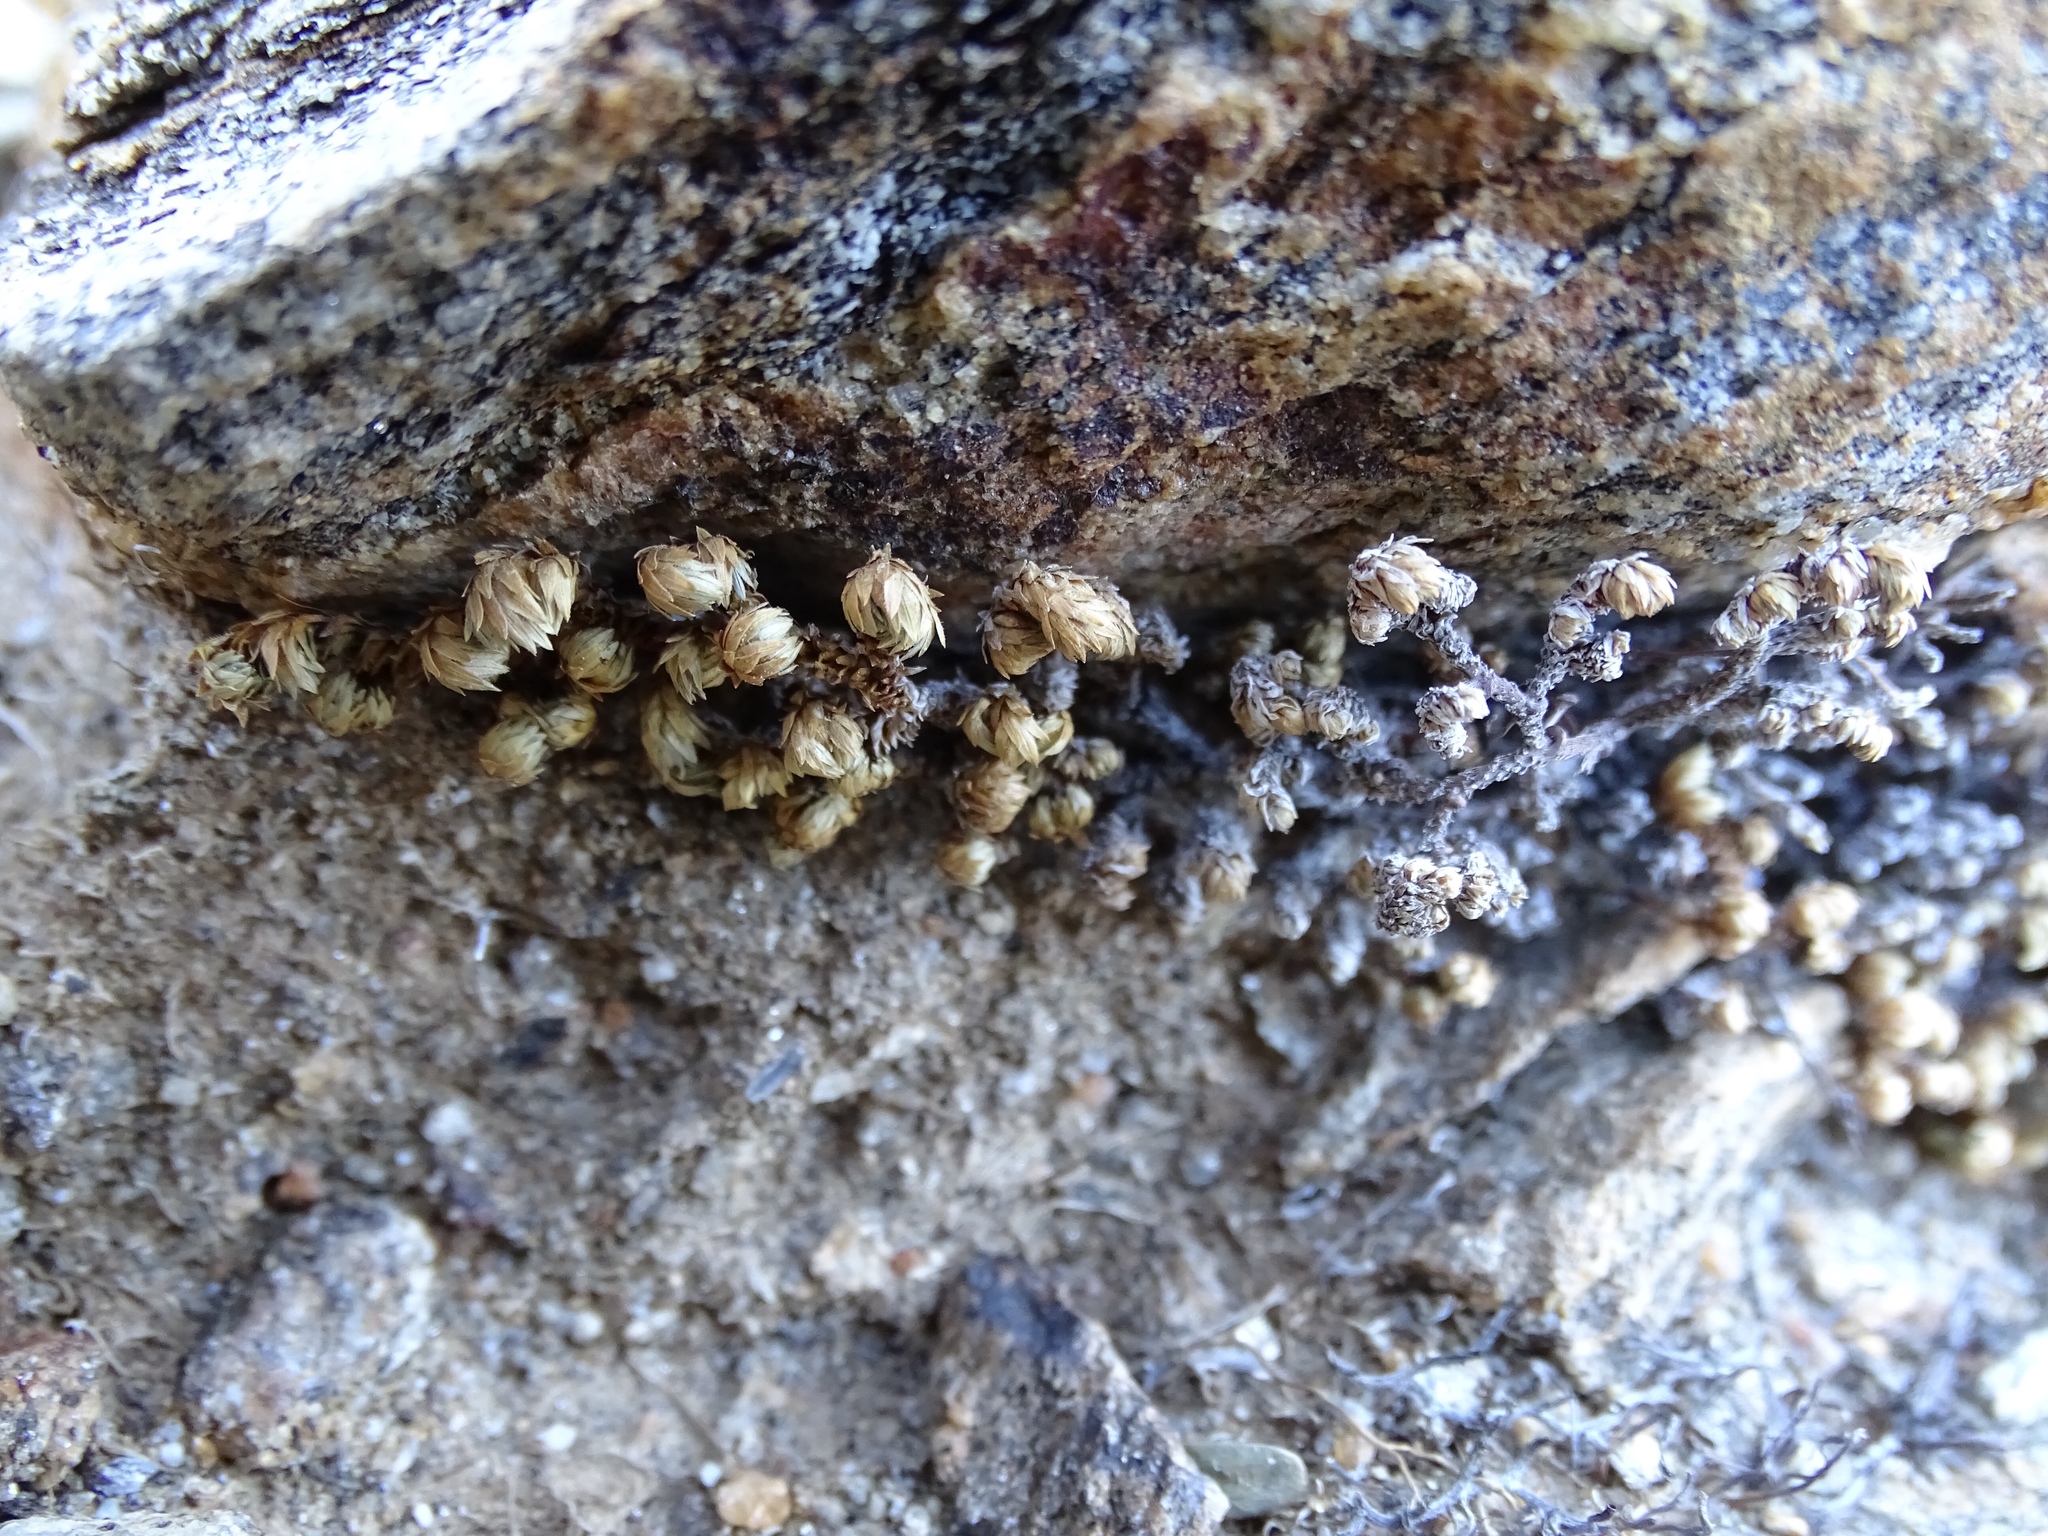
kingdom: Plantae
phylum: Tracheophyta
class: Lycopodiopsida
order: Selaginellales
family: Selaginellaceae
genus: Selaginella
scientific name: Selaginella eremophila
